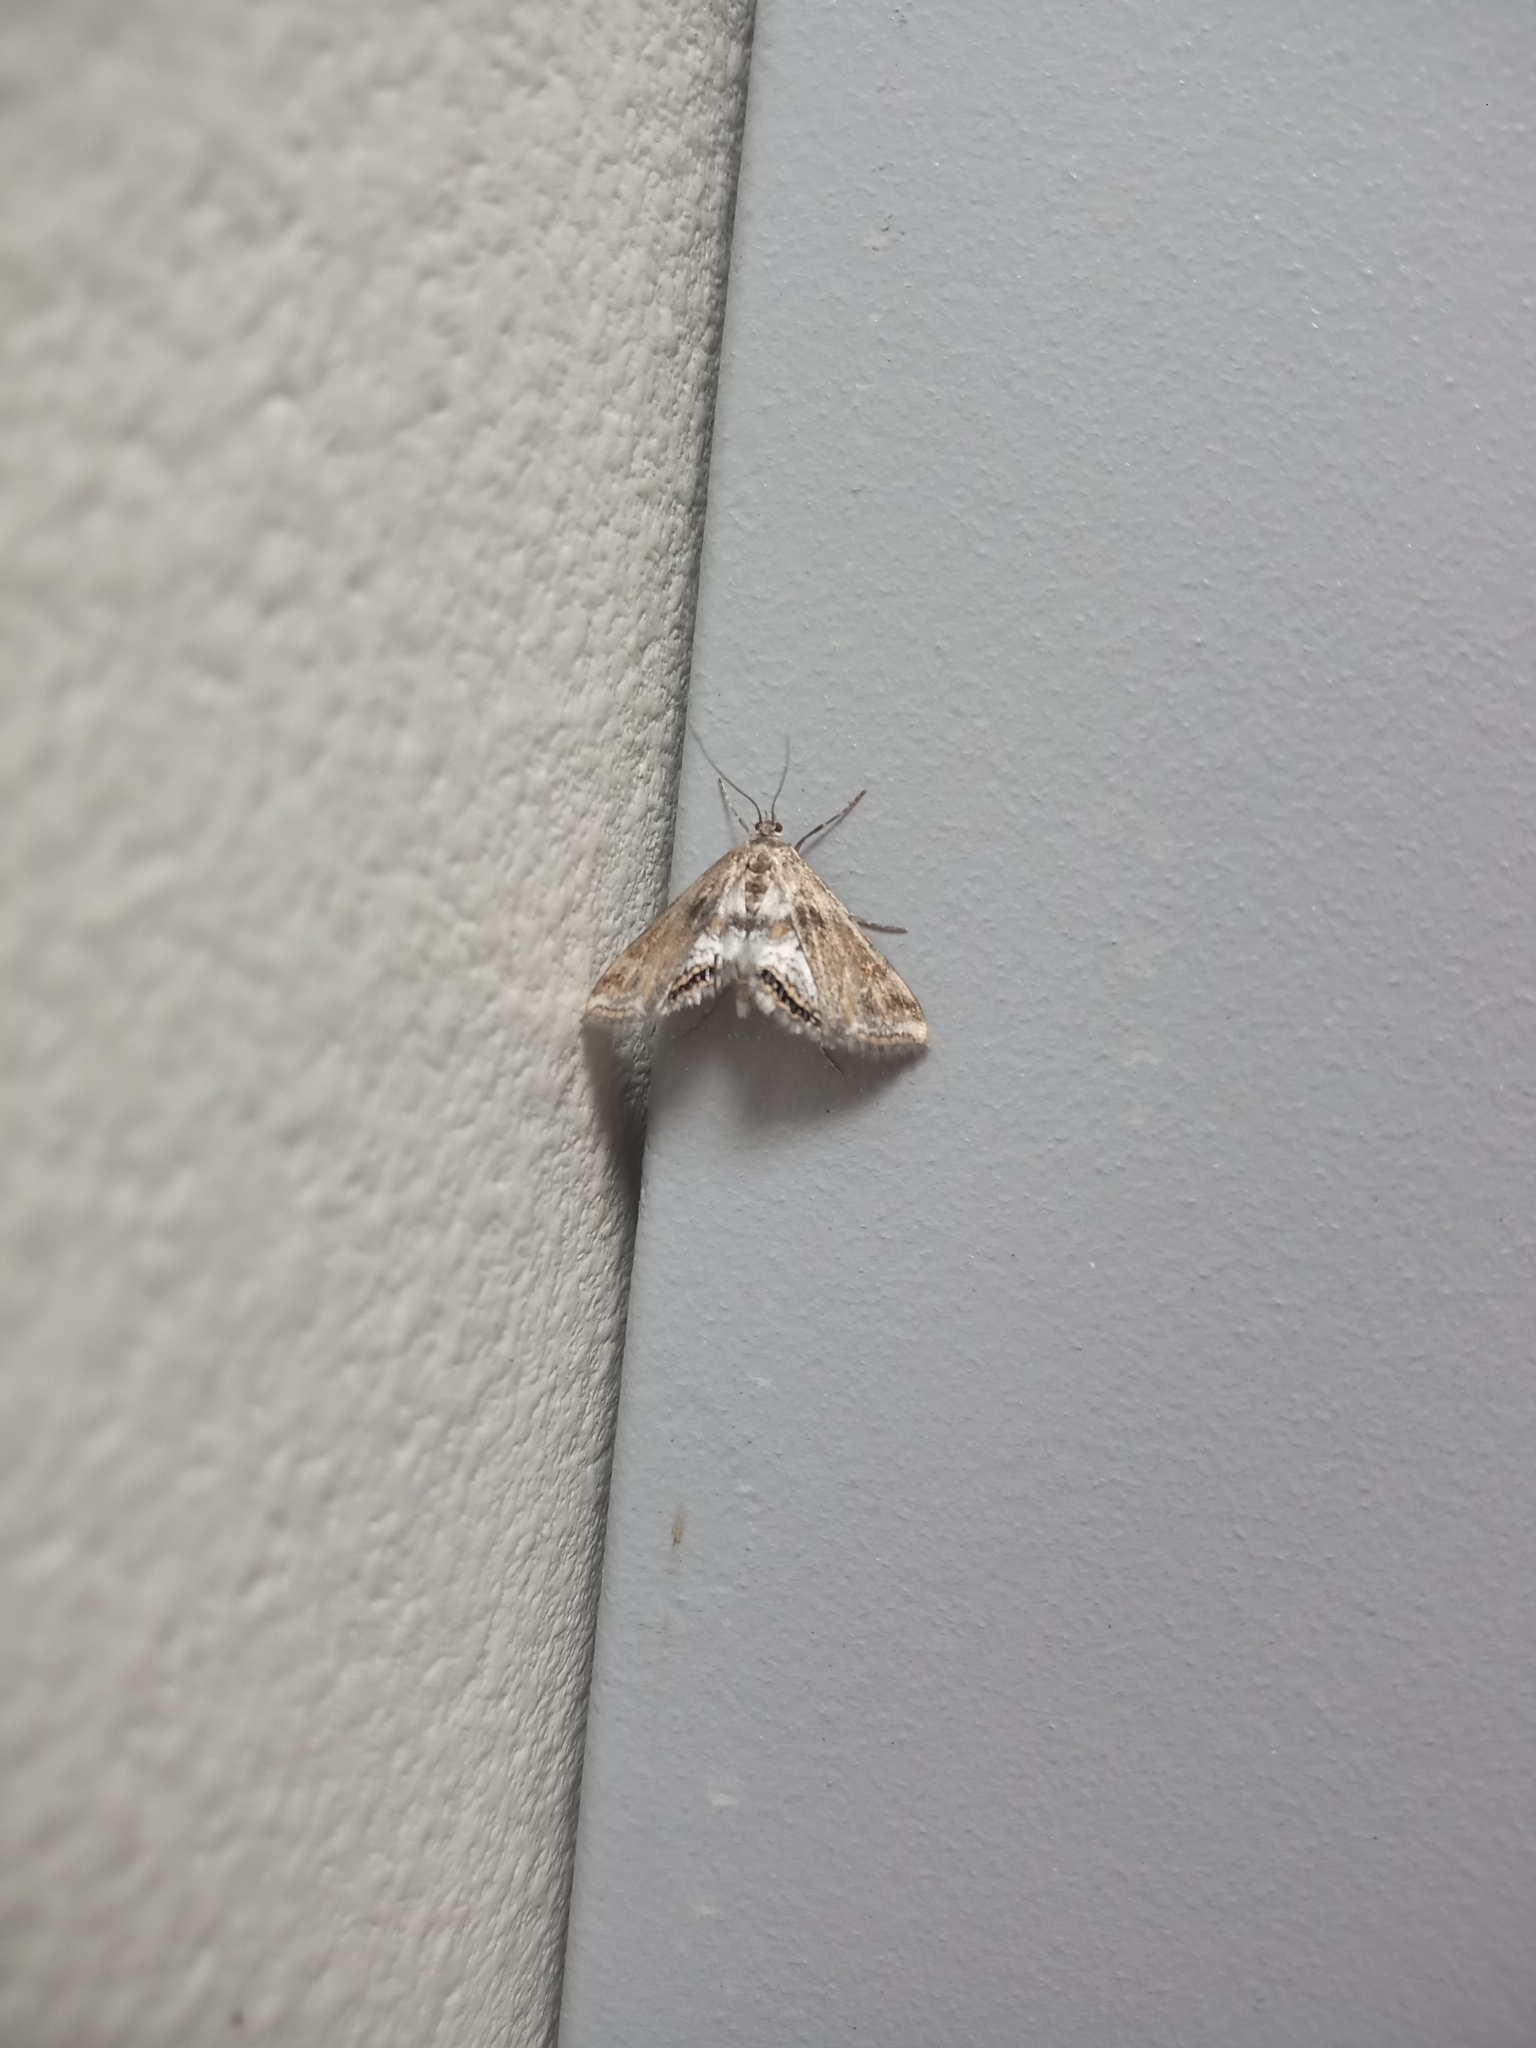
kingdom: Animalia
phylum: Arthropoda
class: Insecta
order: Lepidoptera
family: Crambidae
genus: Cataclysta
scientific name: Cataclysta lemnata
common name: Small china-mark
